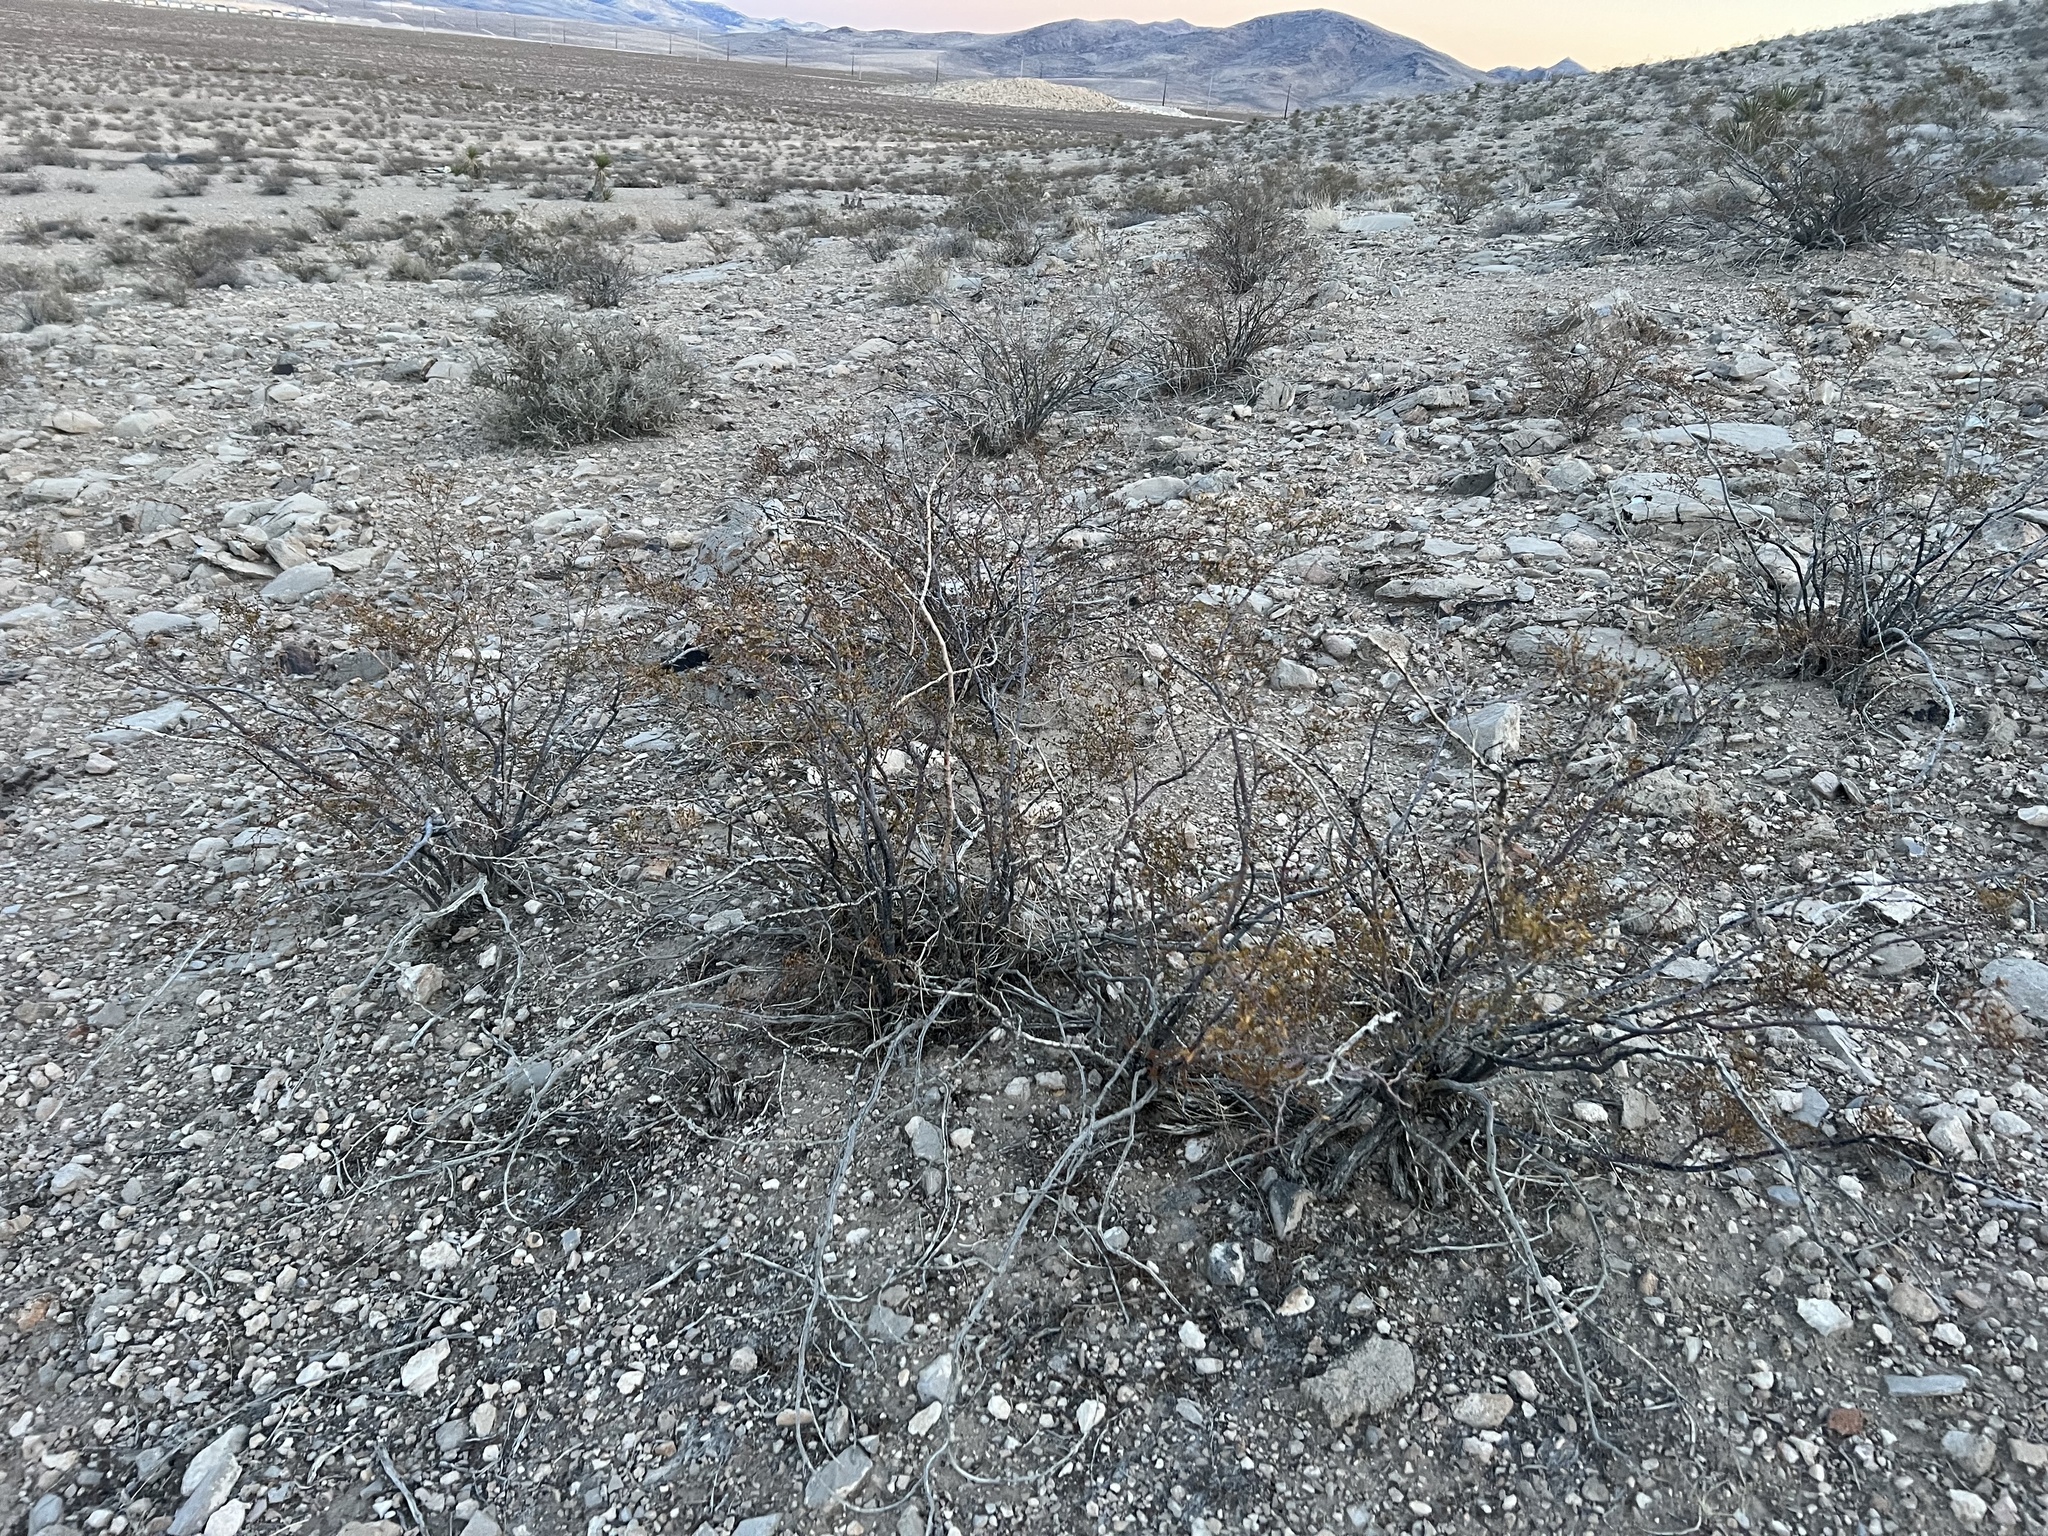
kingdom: Plantae
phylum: Tracheophyta
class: Magnoliopsida
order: Zygophyllales
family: Zygophyllaceae
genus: Larrea
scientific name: Larrea tridentata
